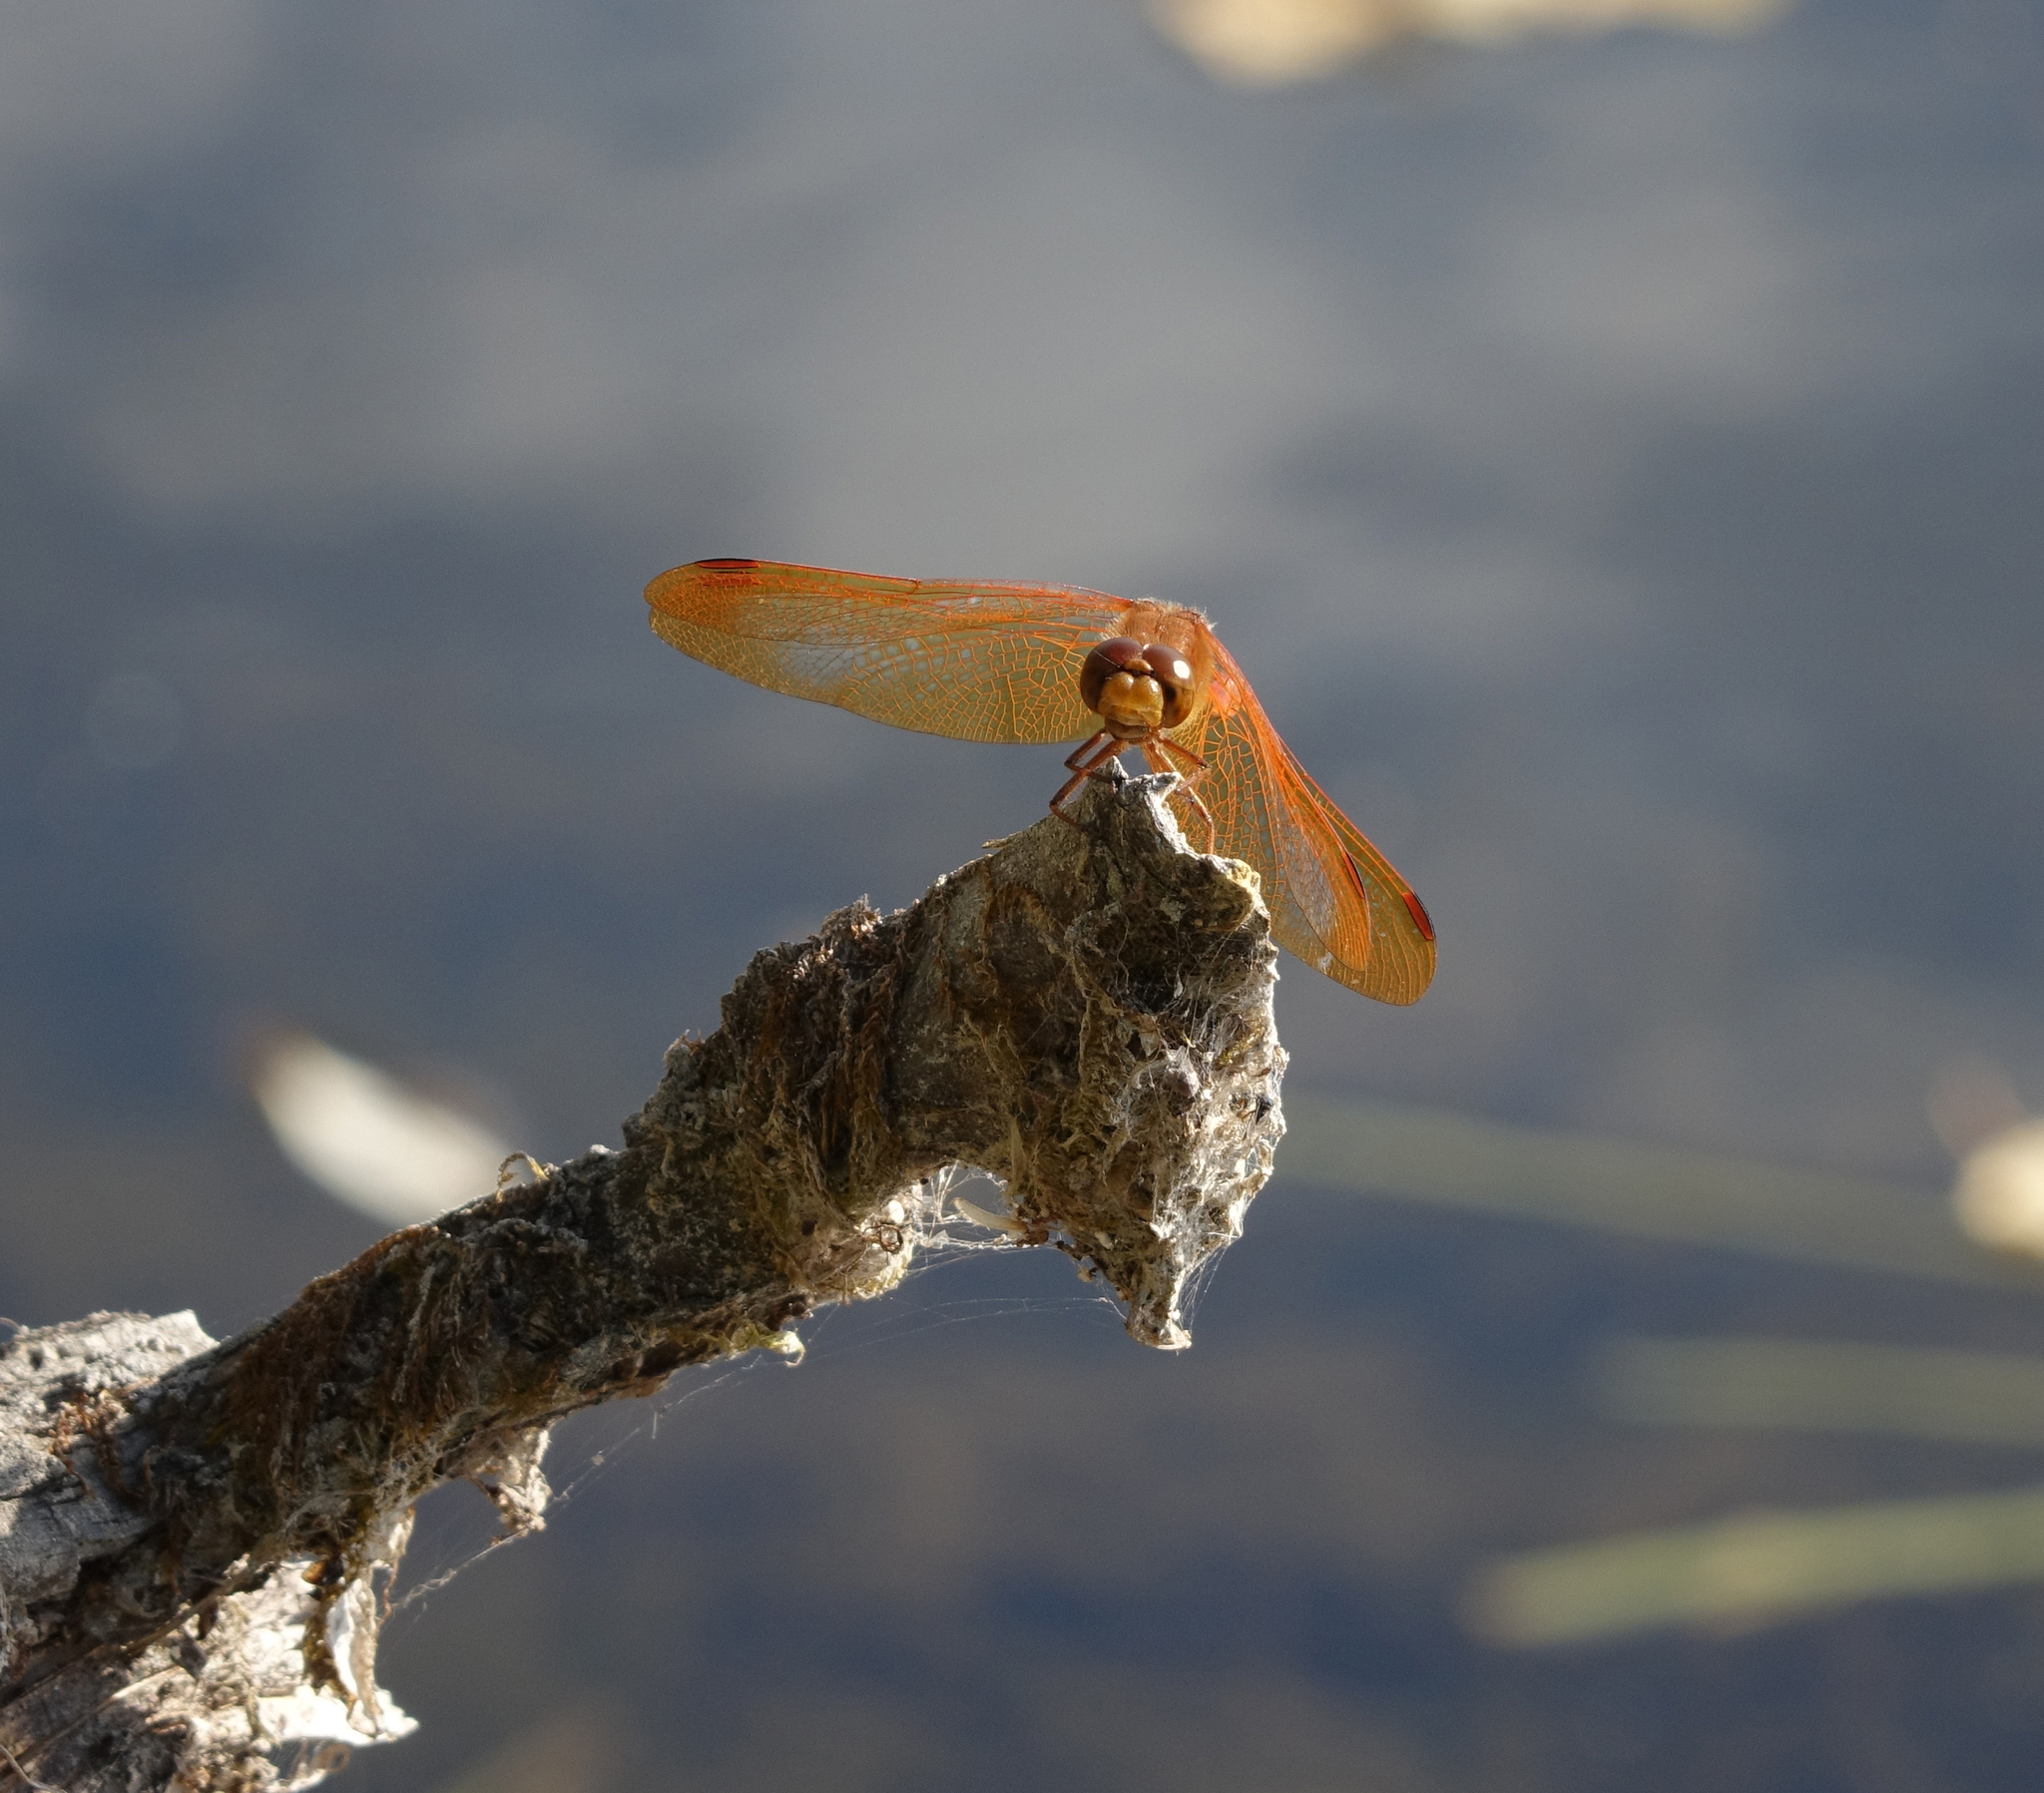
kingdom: Animalia
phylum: Arthropoda
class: Insecta
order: Odonata
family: Libellulidae
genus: Sympetrum
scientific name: Sympetrum croceolum
